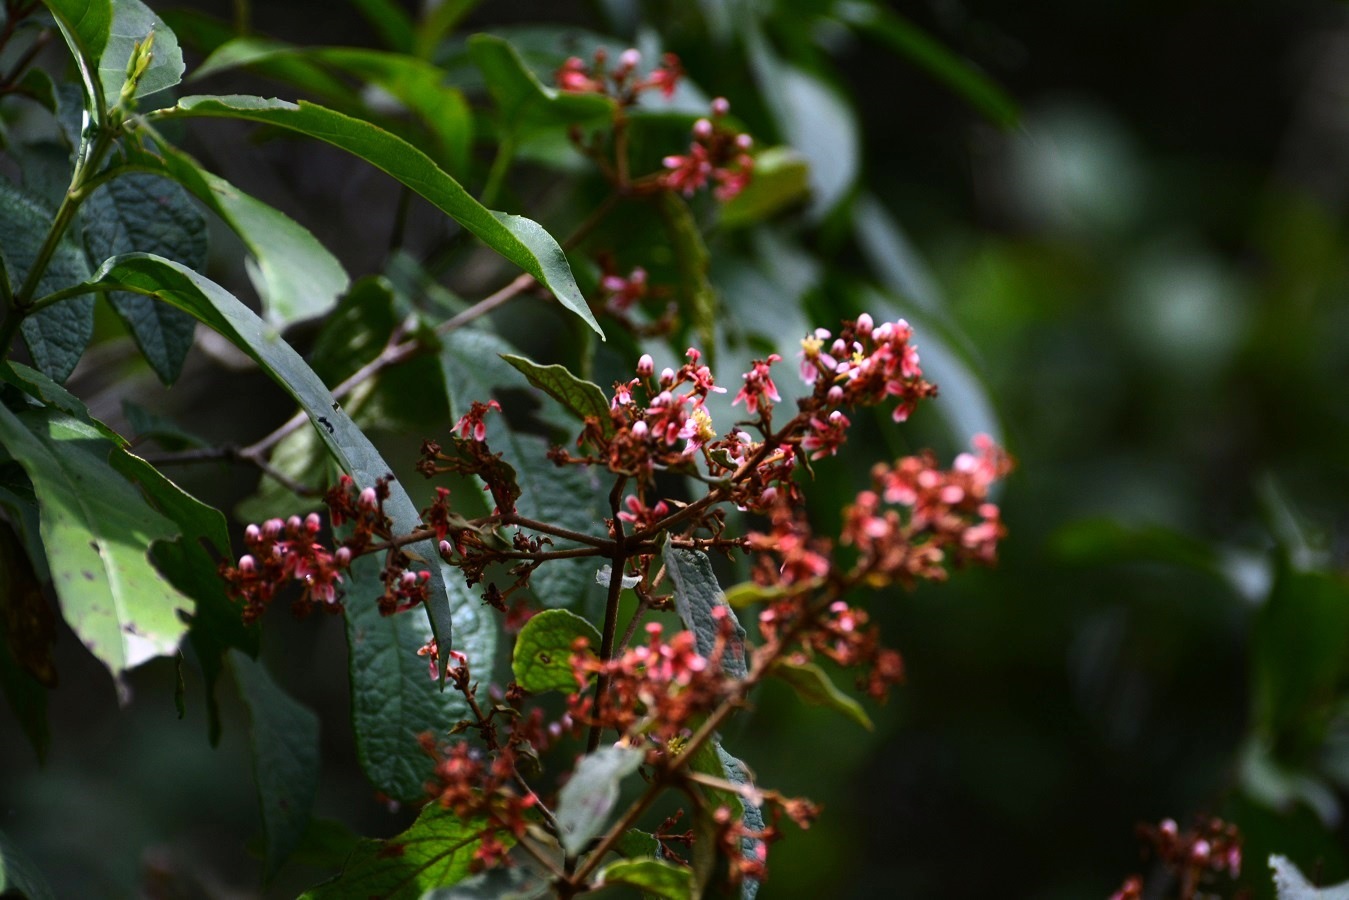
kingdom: Plantae
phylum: Tracheophyta
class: Magnoliopsida
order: Malpighiales
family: Malpighiaceae
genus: Heteropterys
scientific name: Heteropterys brachiata
